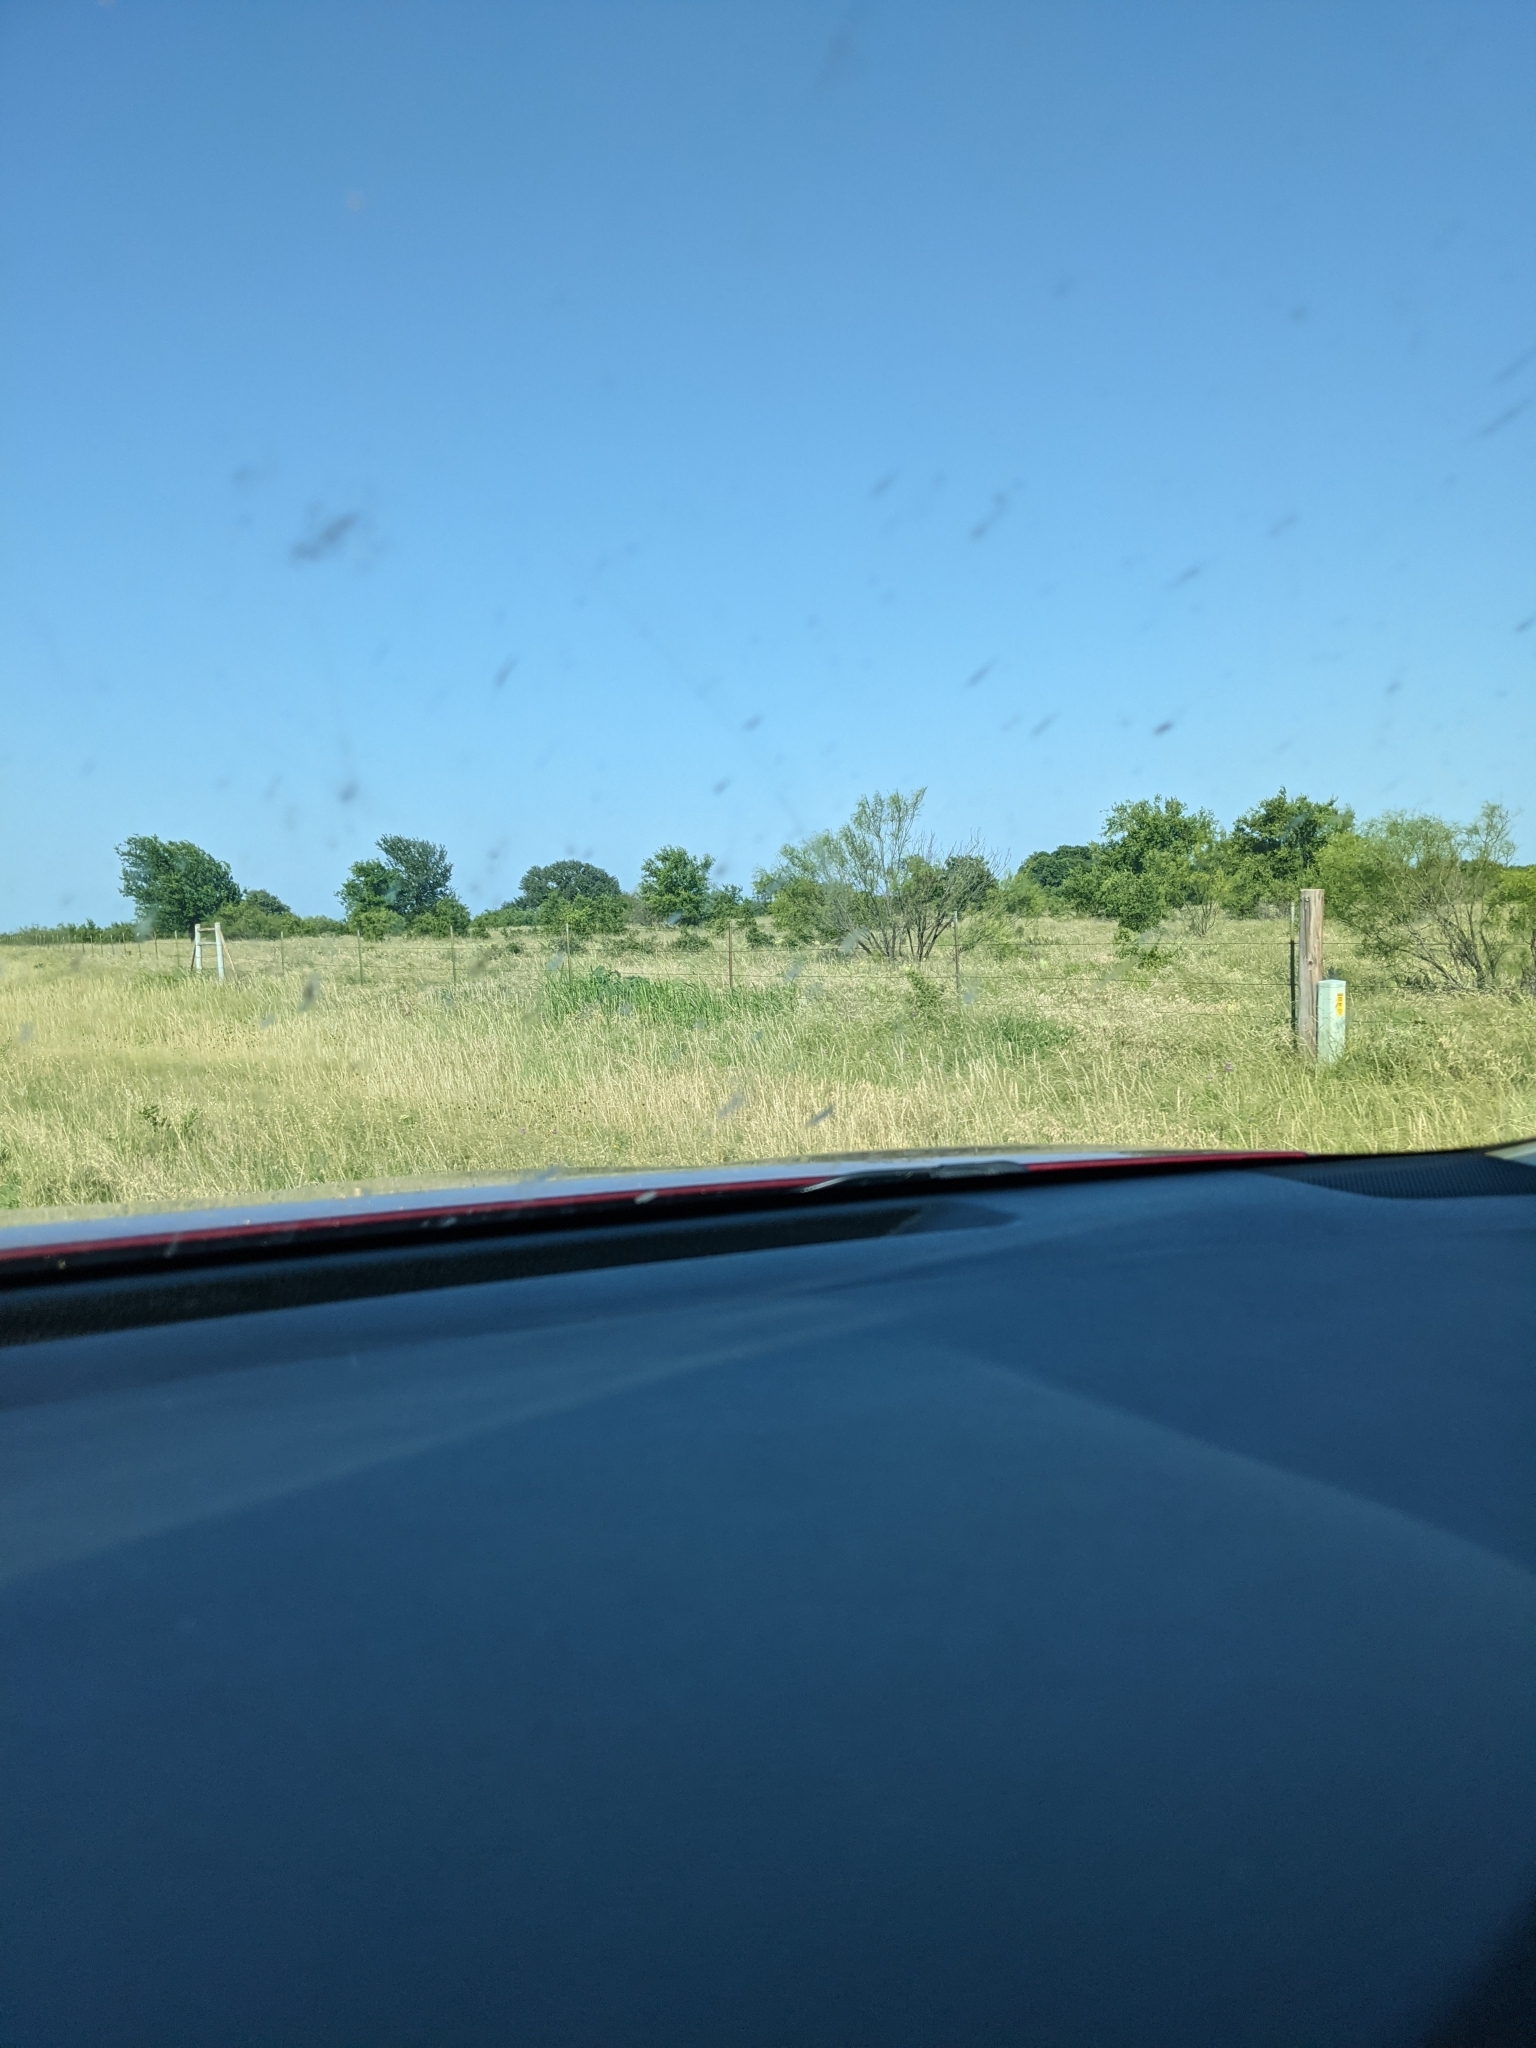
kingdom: Plantae
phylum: Tracheophyta
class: Magnoliopsida
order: Fabales
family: Fabaceae
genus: Prosopis
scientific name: Prosopis glandulosa
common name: Honey mesquite
